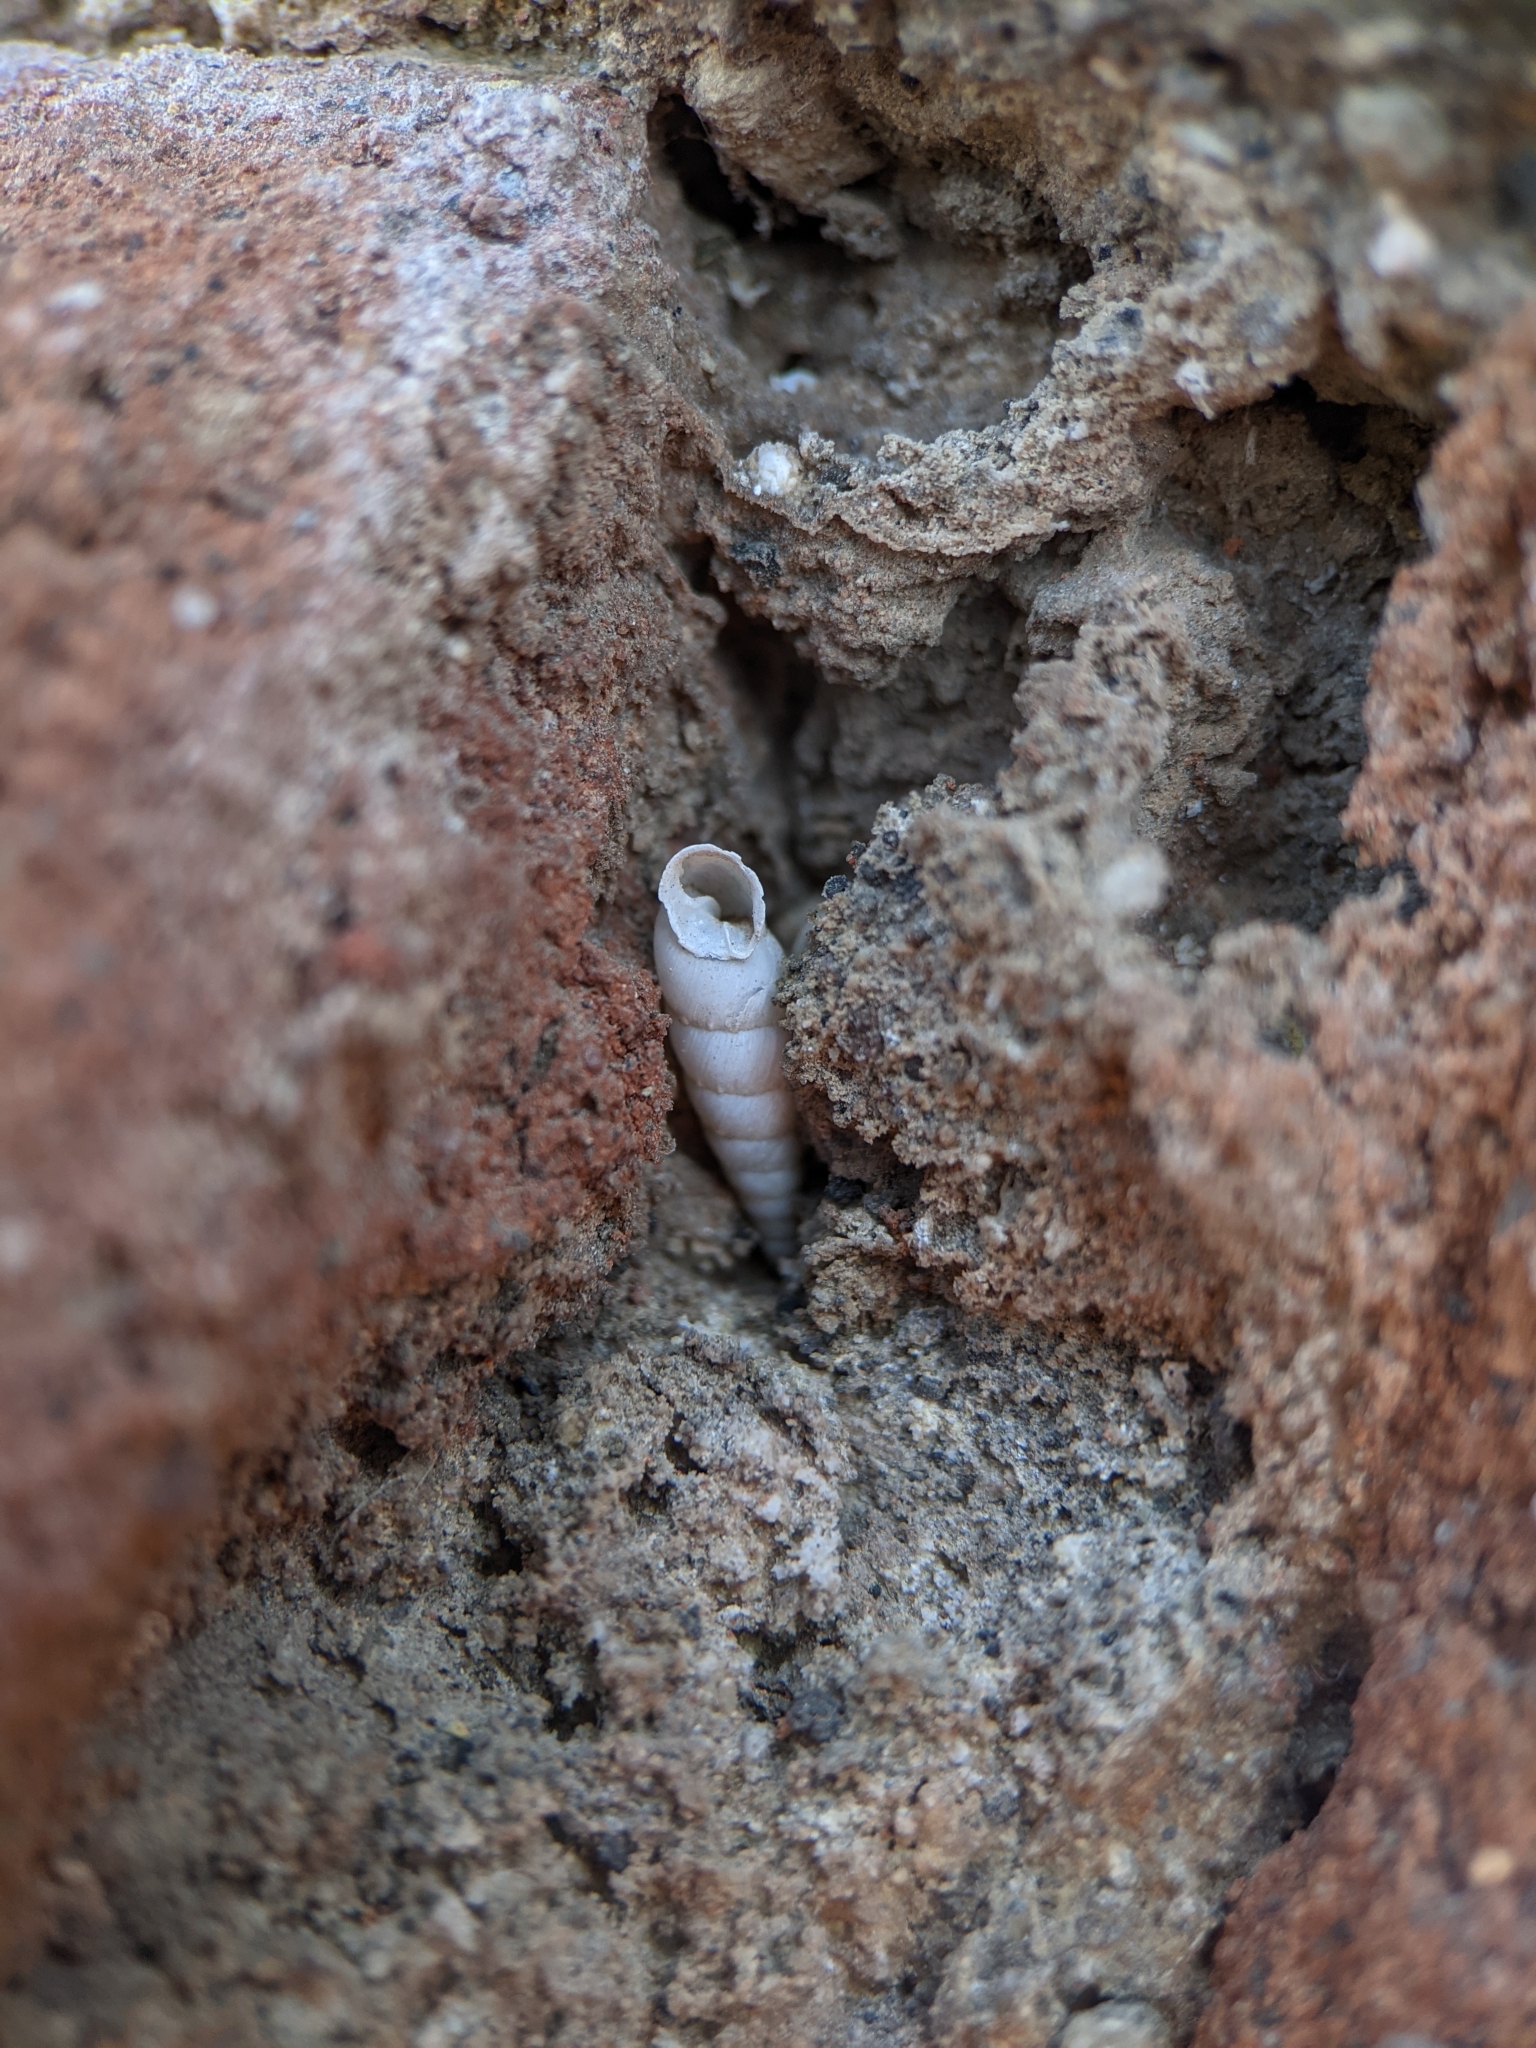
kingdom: Animalia
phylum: Mollusca
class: Gastropoda
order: Stylommatophora
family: Clausiliidae
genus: Papillifera
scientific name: Papillifera papillaris
